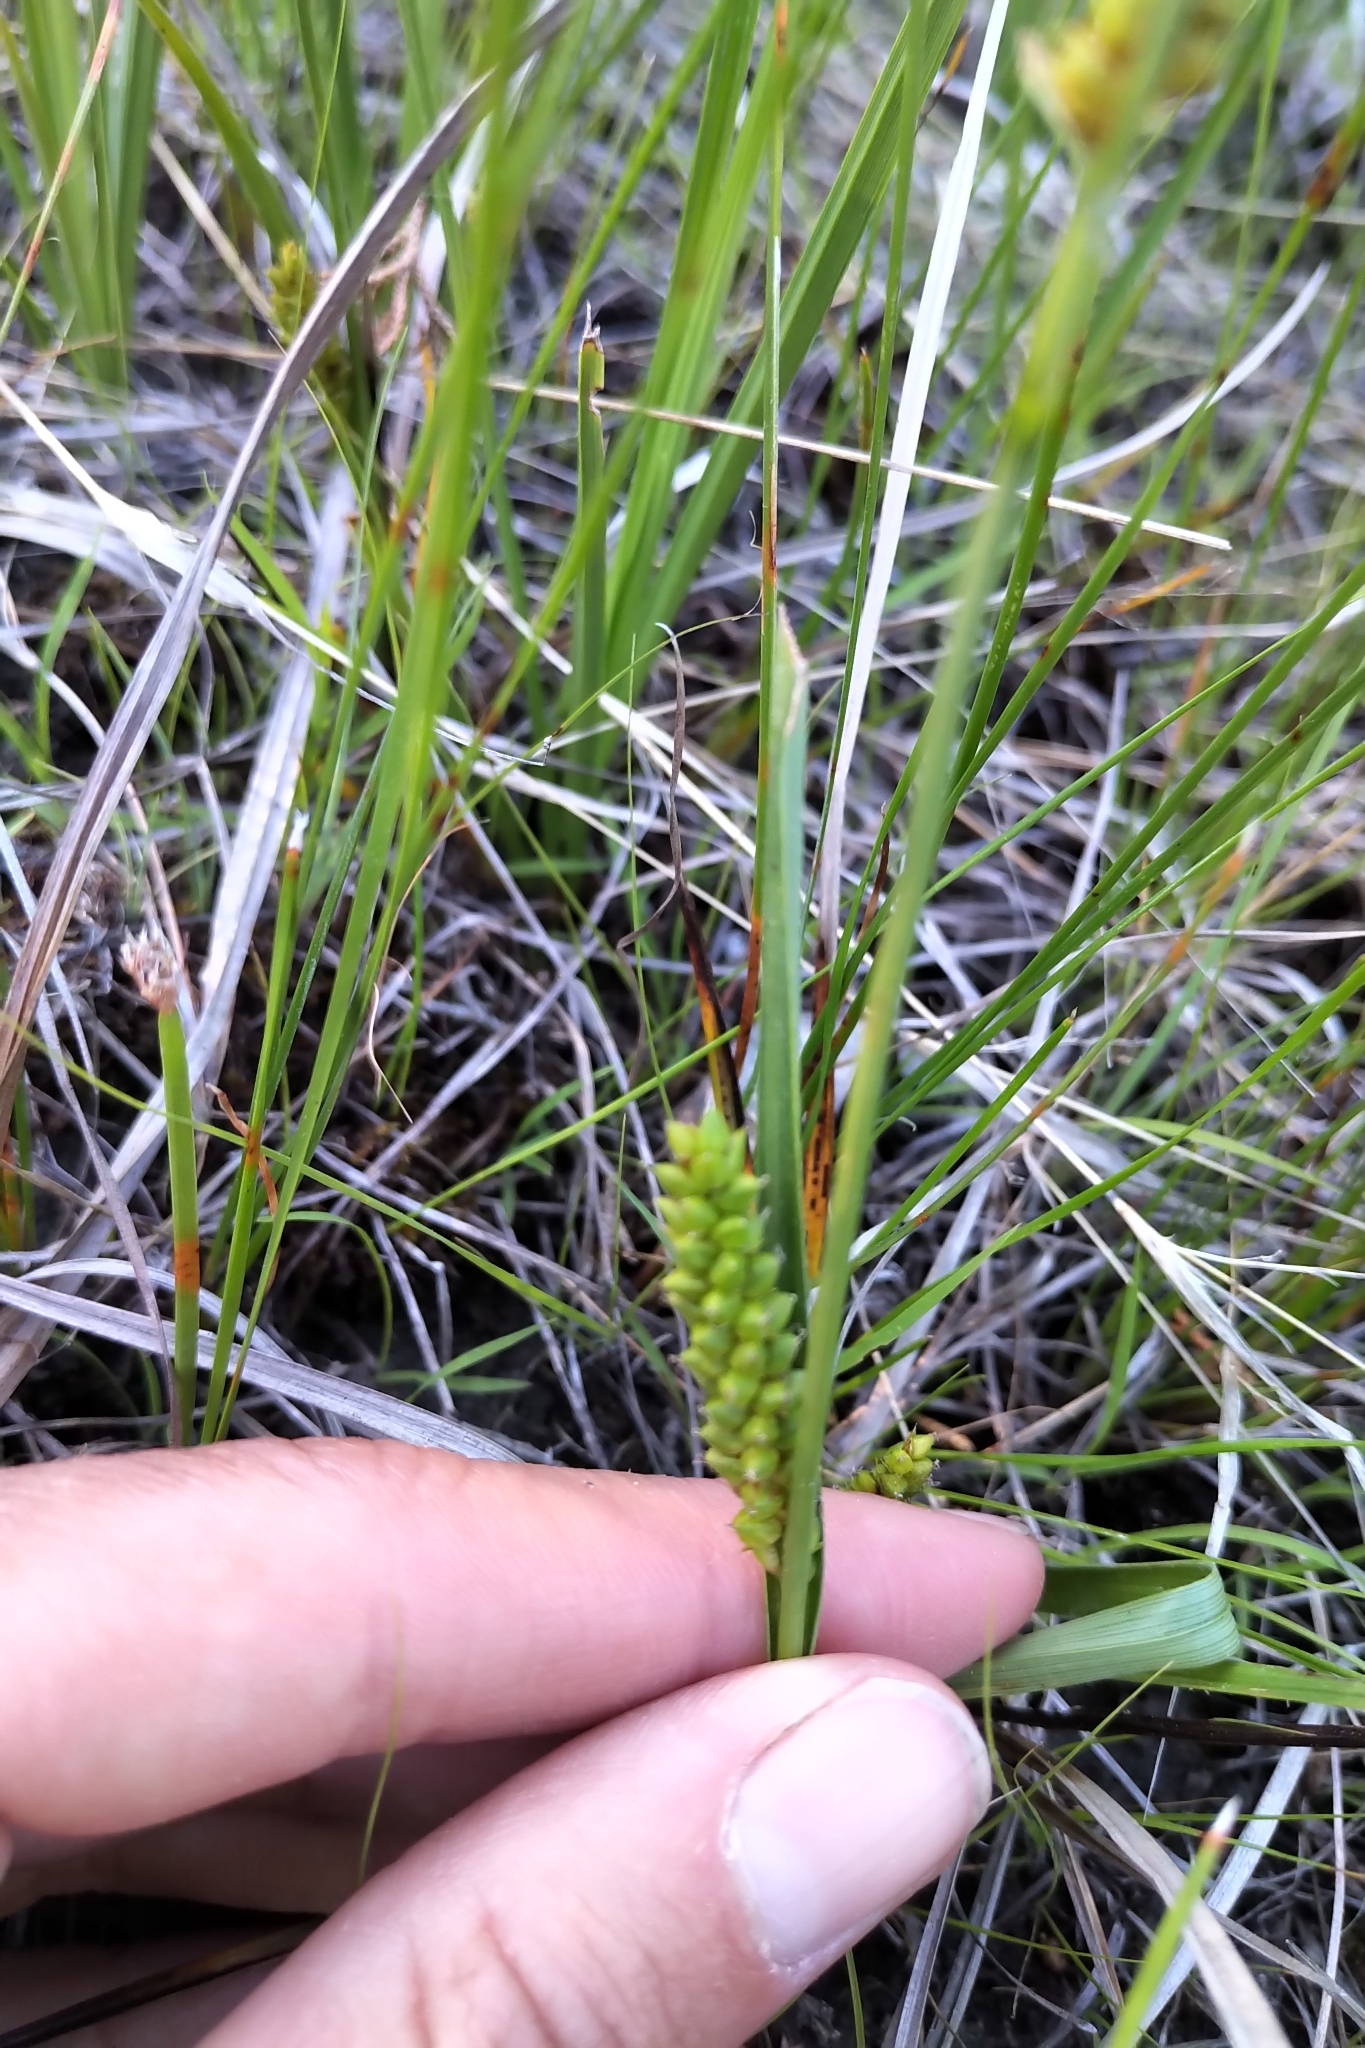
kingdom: Plantae
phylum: Tracheophyta
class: Liliopsida
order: Poales
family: Cyperaceae
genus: Carex
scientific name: Carex crawei
